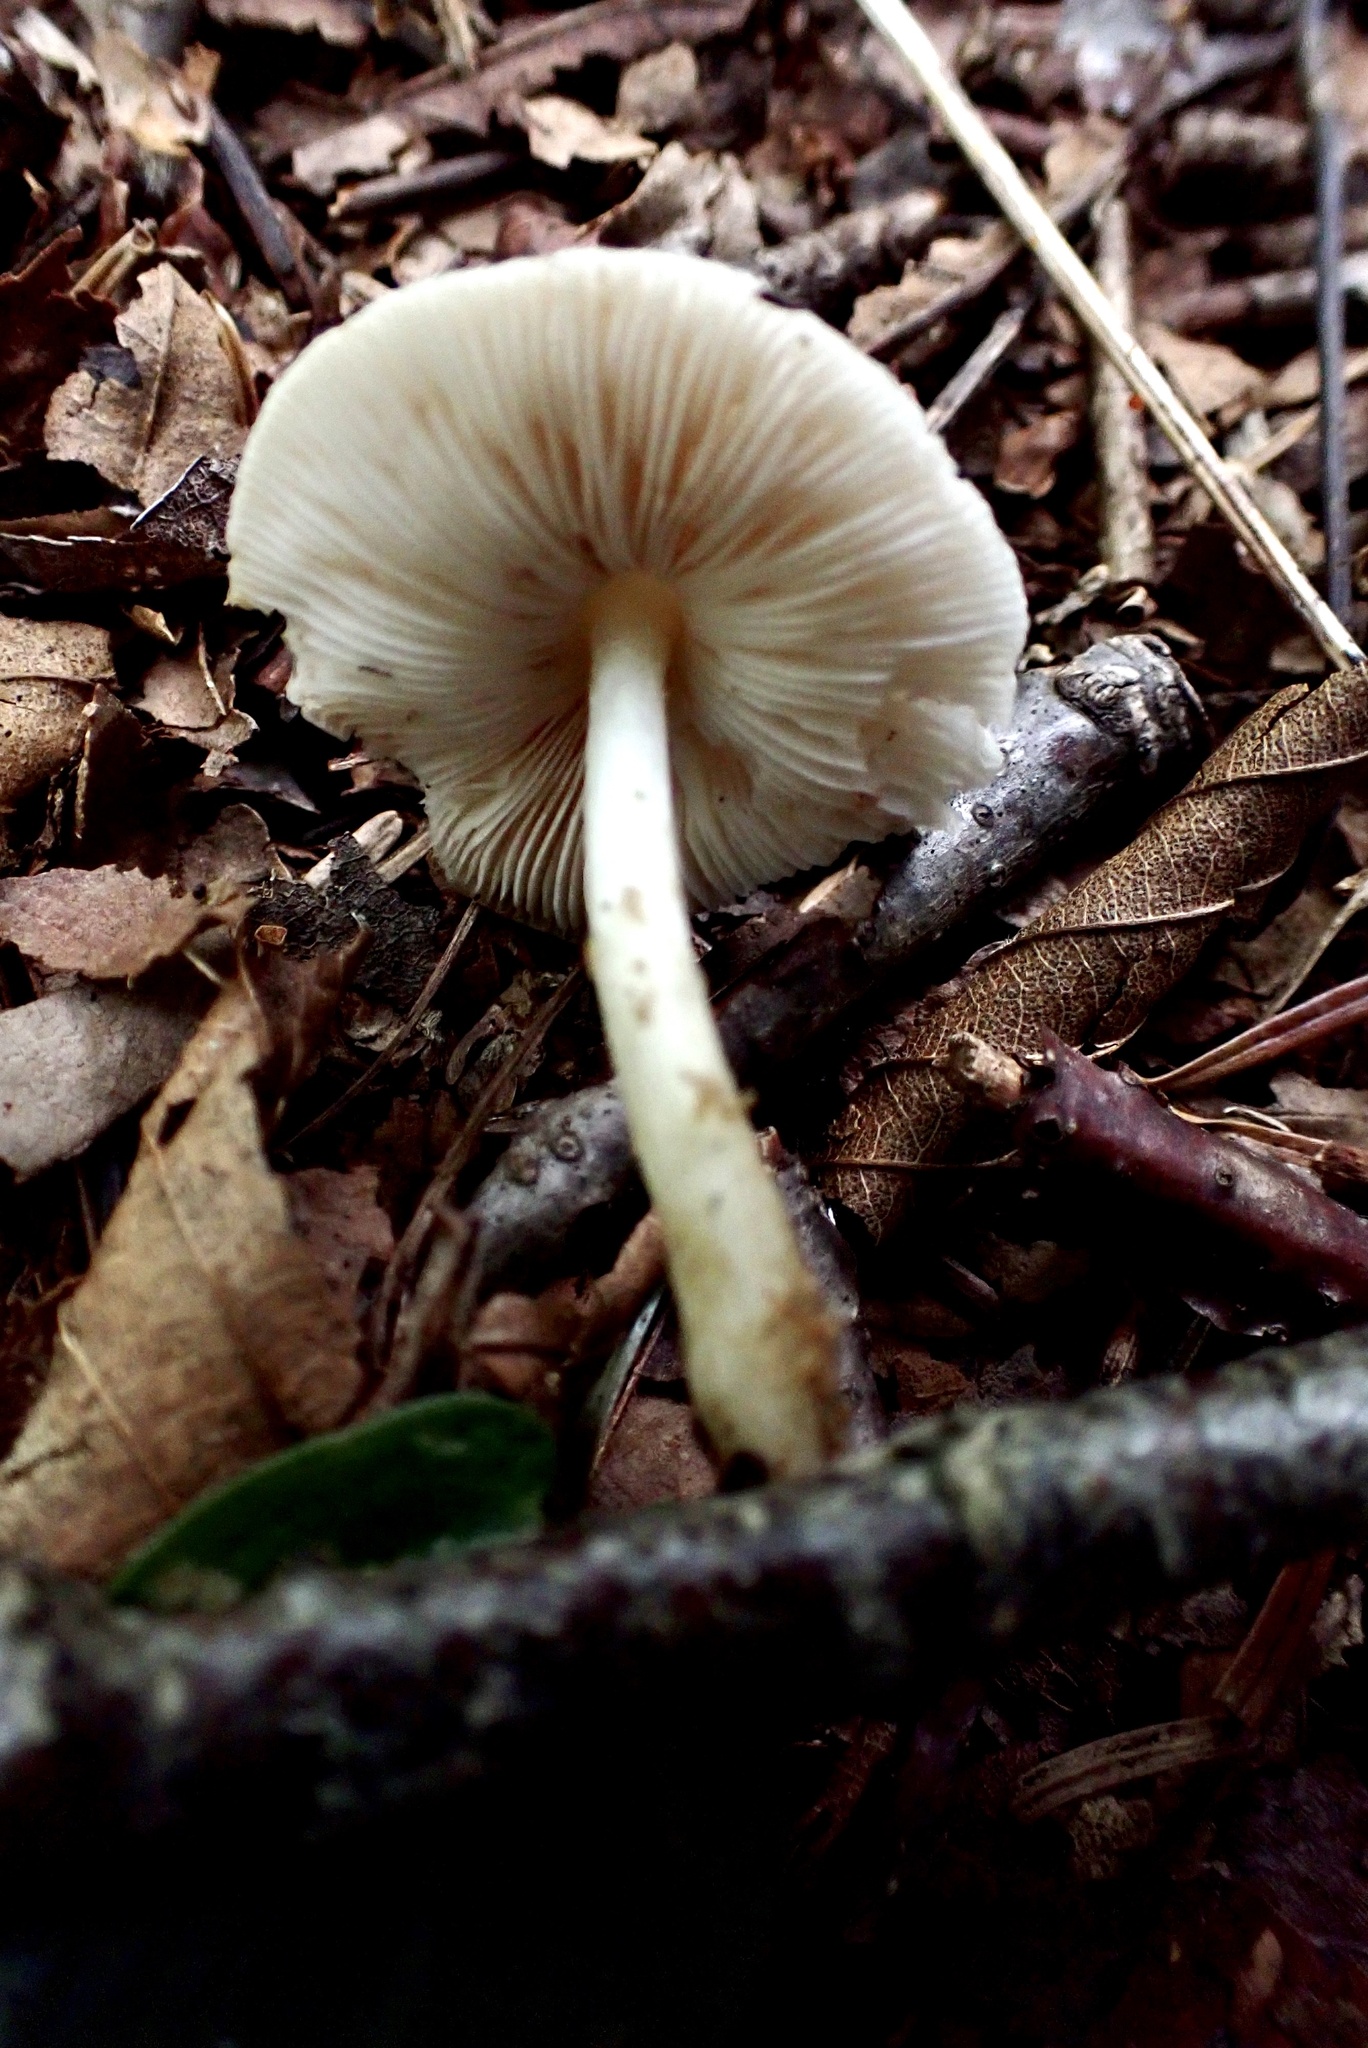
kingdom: Fungi
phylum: Basidiomycota
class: Agaricomycetes
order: Agaricales
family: Pluteaceae
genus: Pluteus
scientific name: Pluteus leucoborealis
